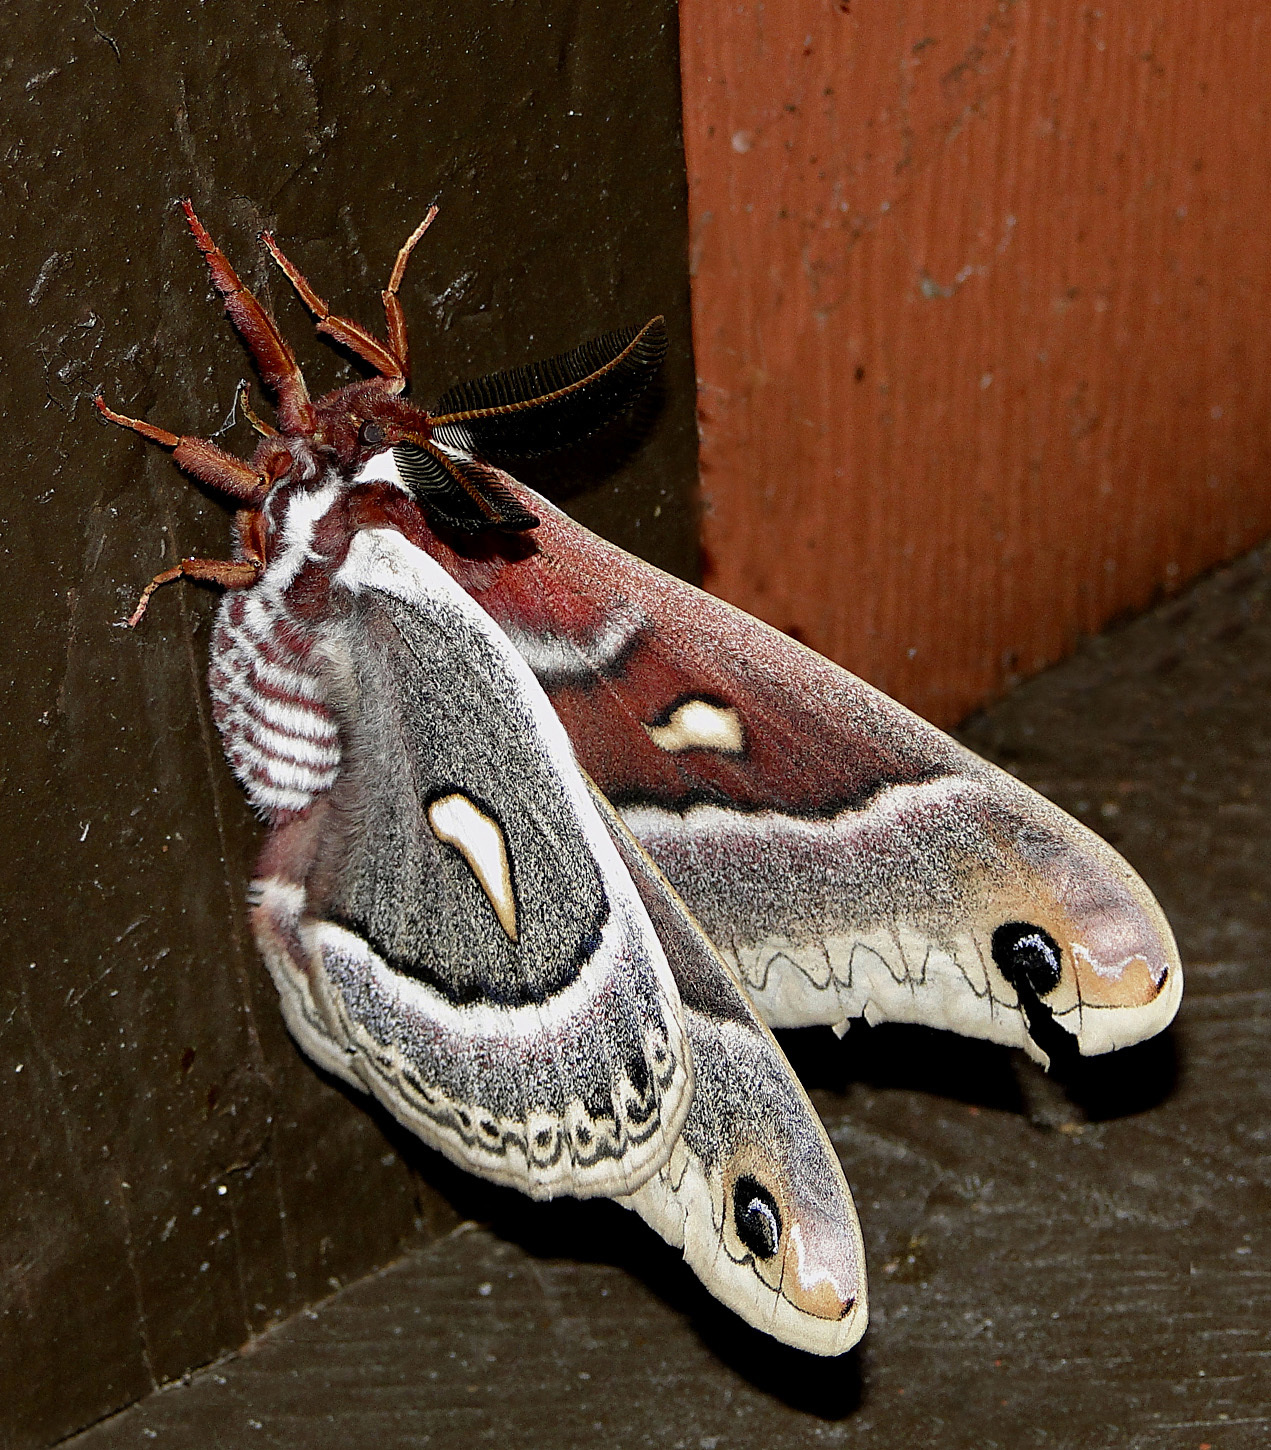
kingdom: Animalia
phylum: Arthropoda
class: Insecta
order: Lepidoptera
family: Saturniidae
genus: Hyalophora
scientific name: Hyalophora gloveri
